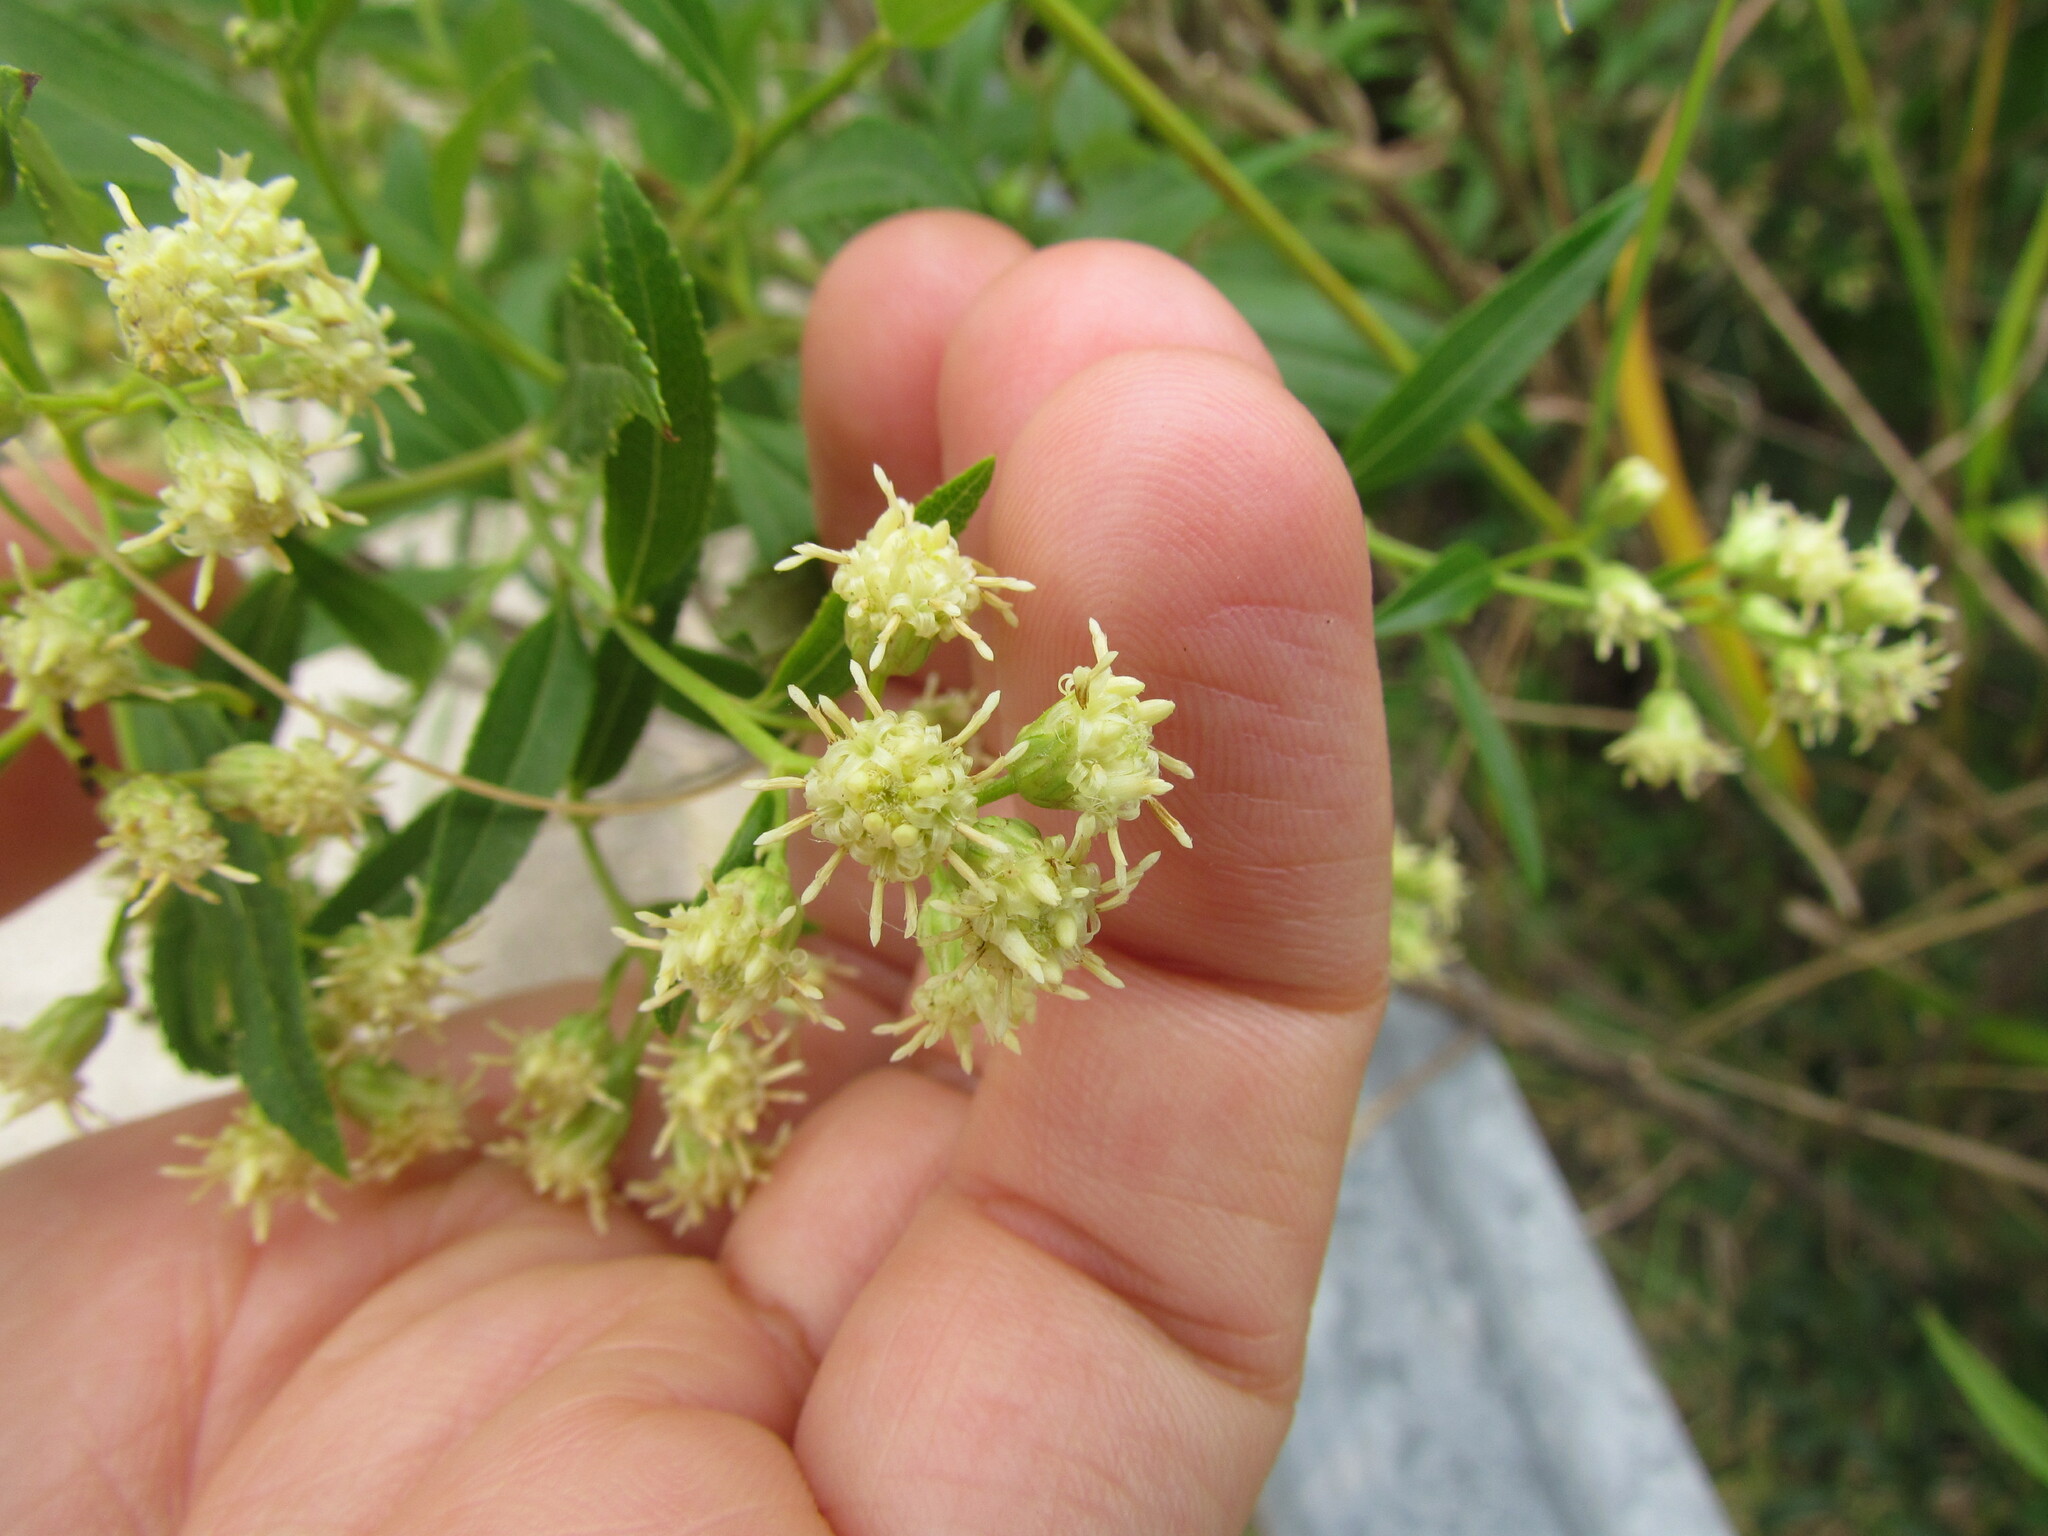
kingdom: Plantae
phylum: Tracheophyta
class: Magnoliopsida
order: Asterales
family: Asteraceae
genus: Baccharis
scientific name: Baccharis punctulata
